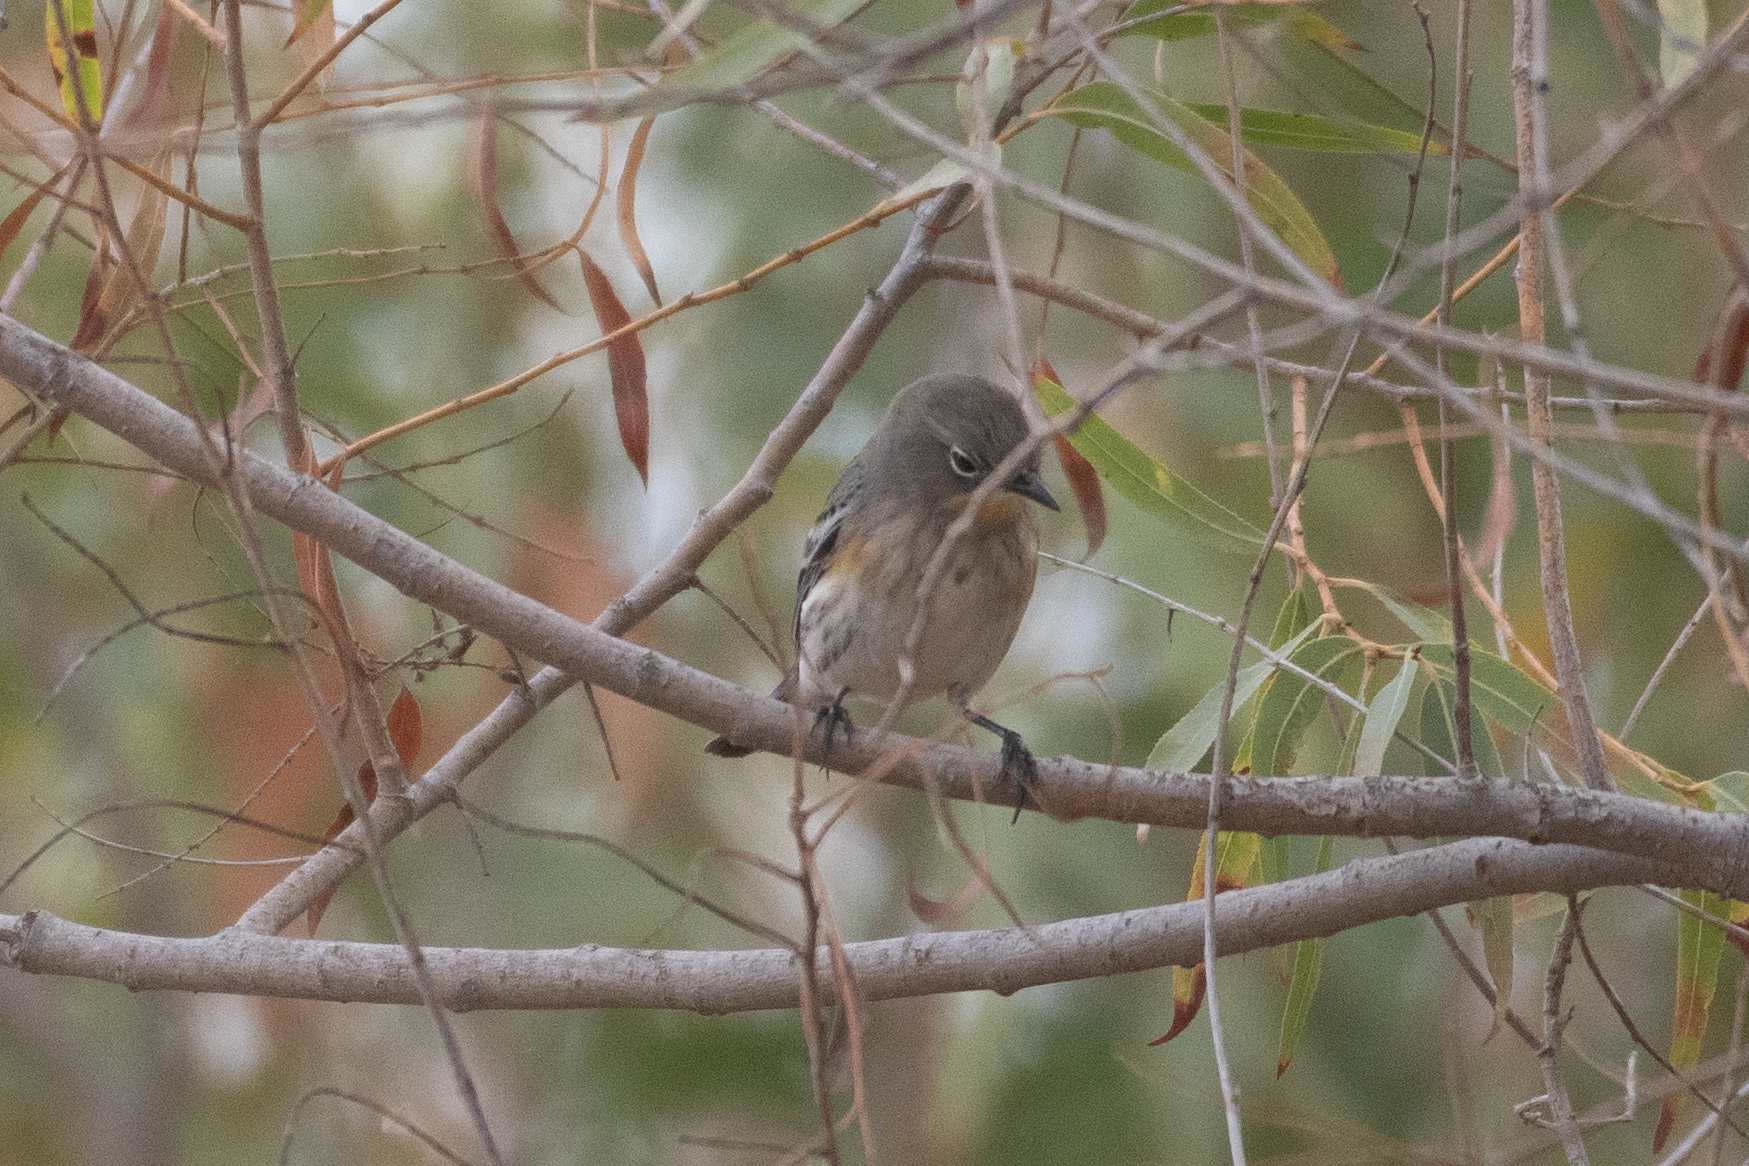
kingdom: Animalia
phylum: Chordata
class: Aves
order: Passeriformes
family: Parulidae
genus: Setophaga
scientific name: Setophaga coronata
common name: Myrtle warbler
